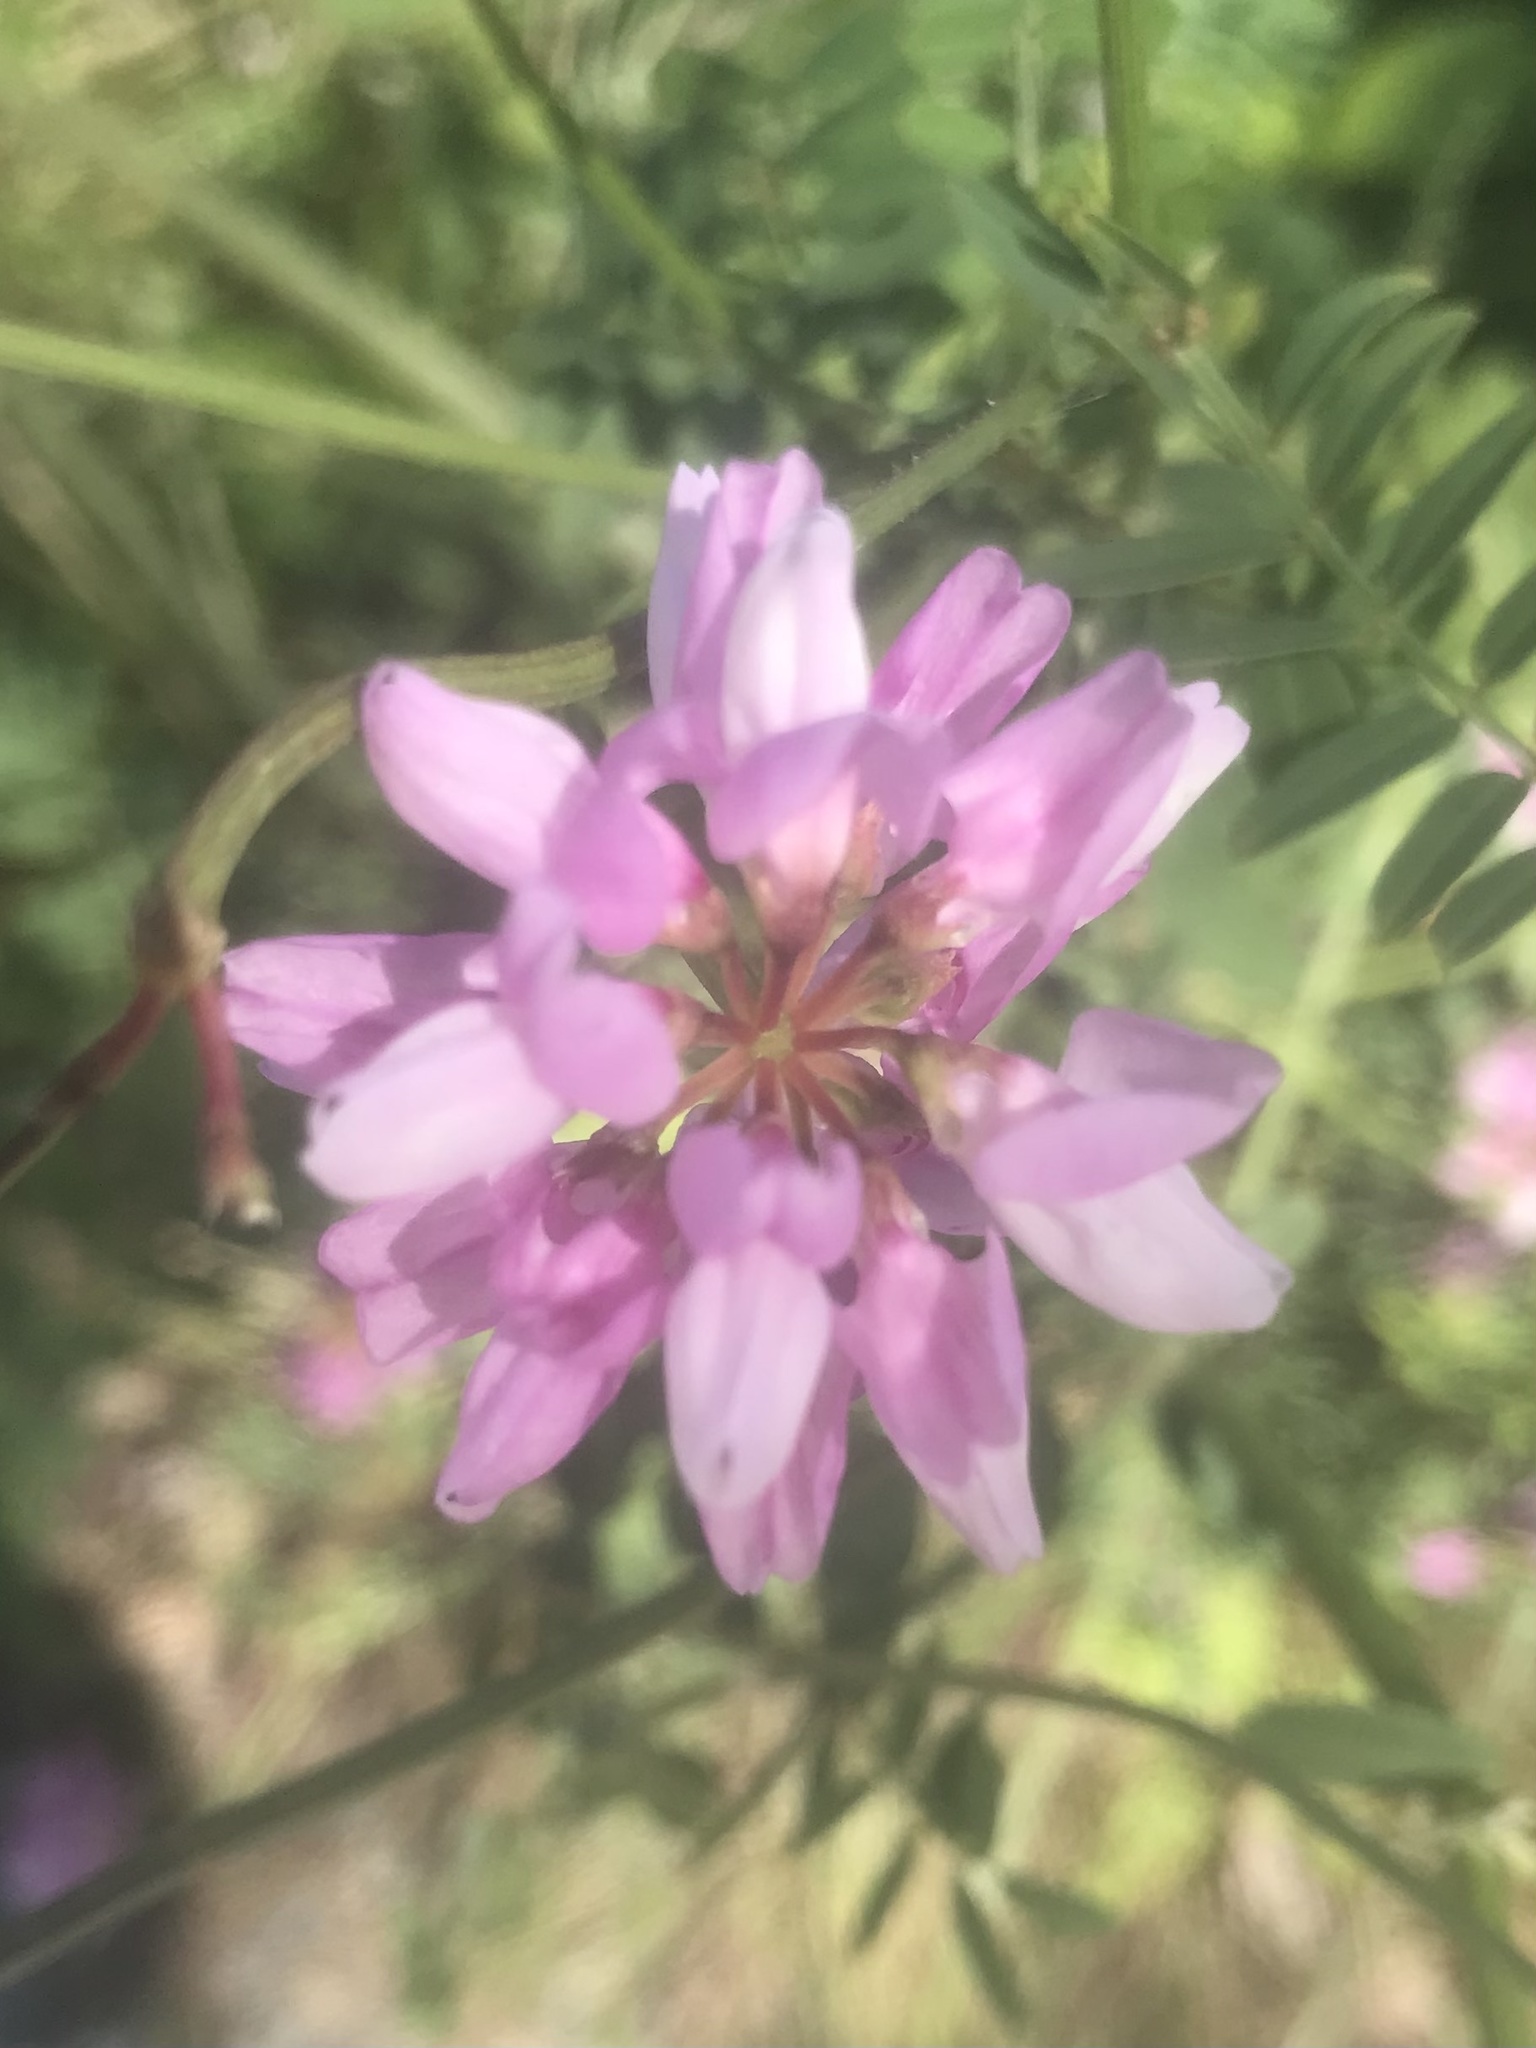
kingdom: Plantae
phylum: Tracheophyta
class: Magnoliopsida
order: Fabales
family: Fabaceae
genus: Coronilla
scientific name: Coronilla varia
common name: Crownvetch
